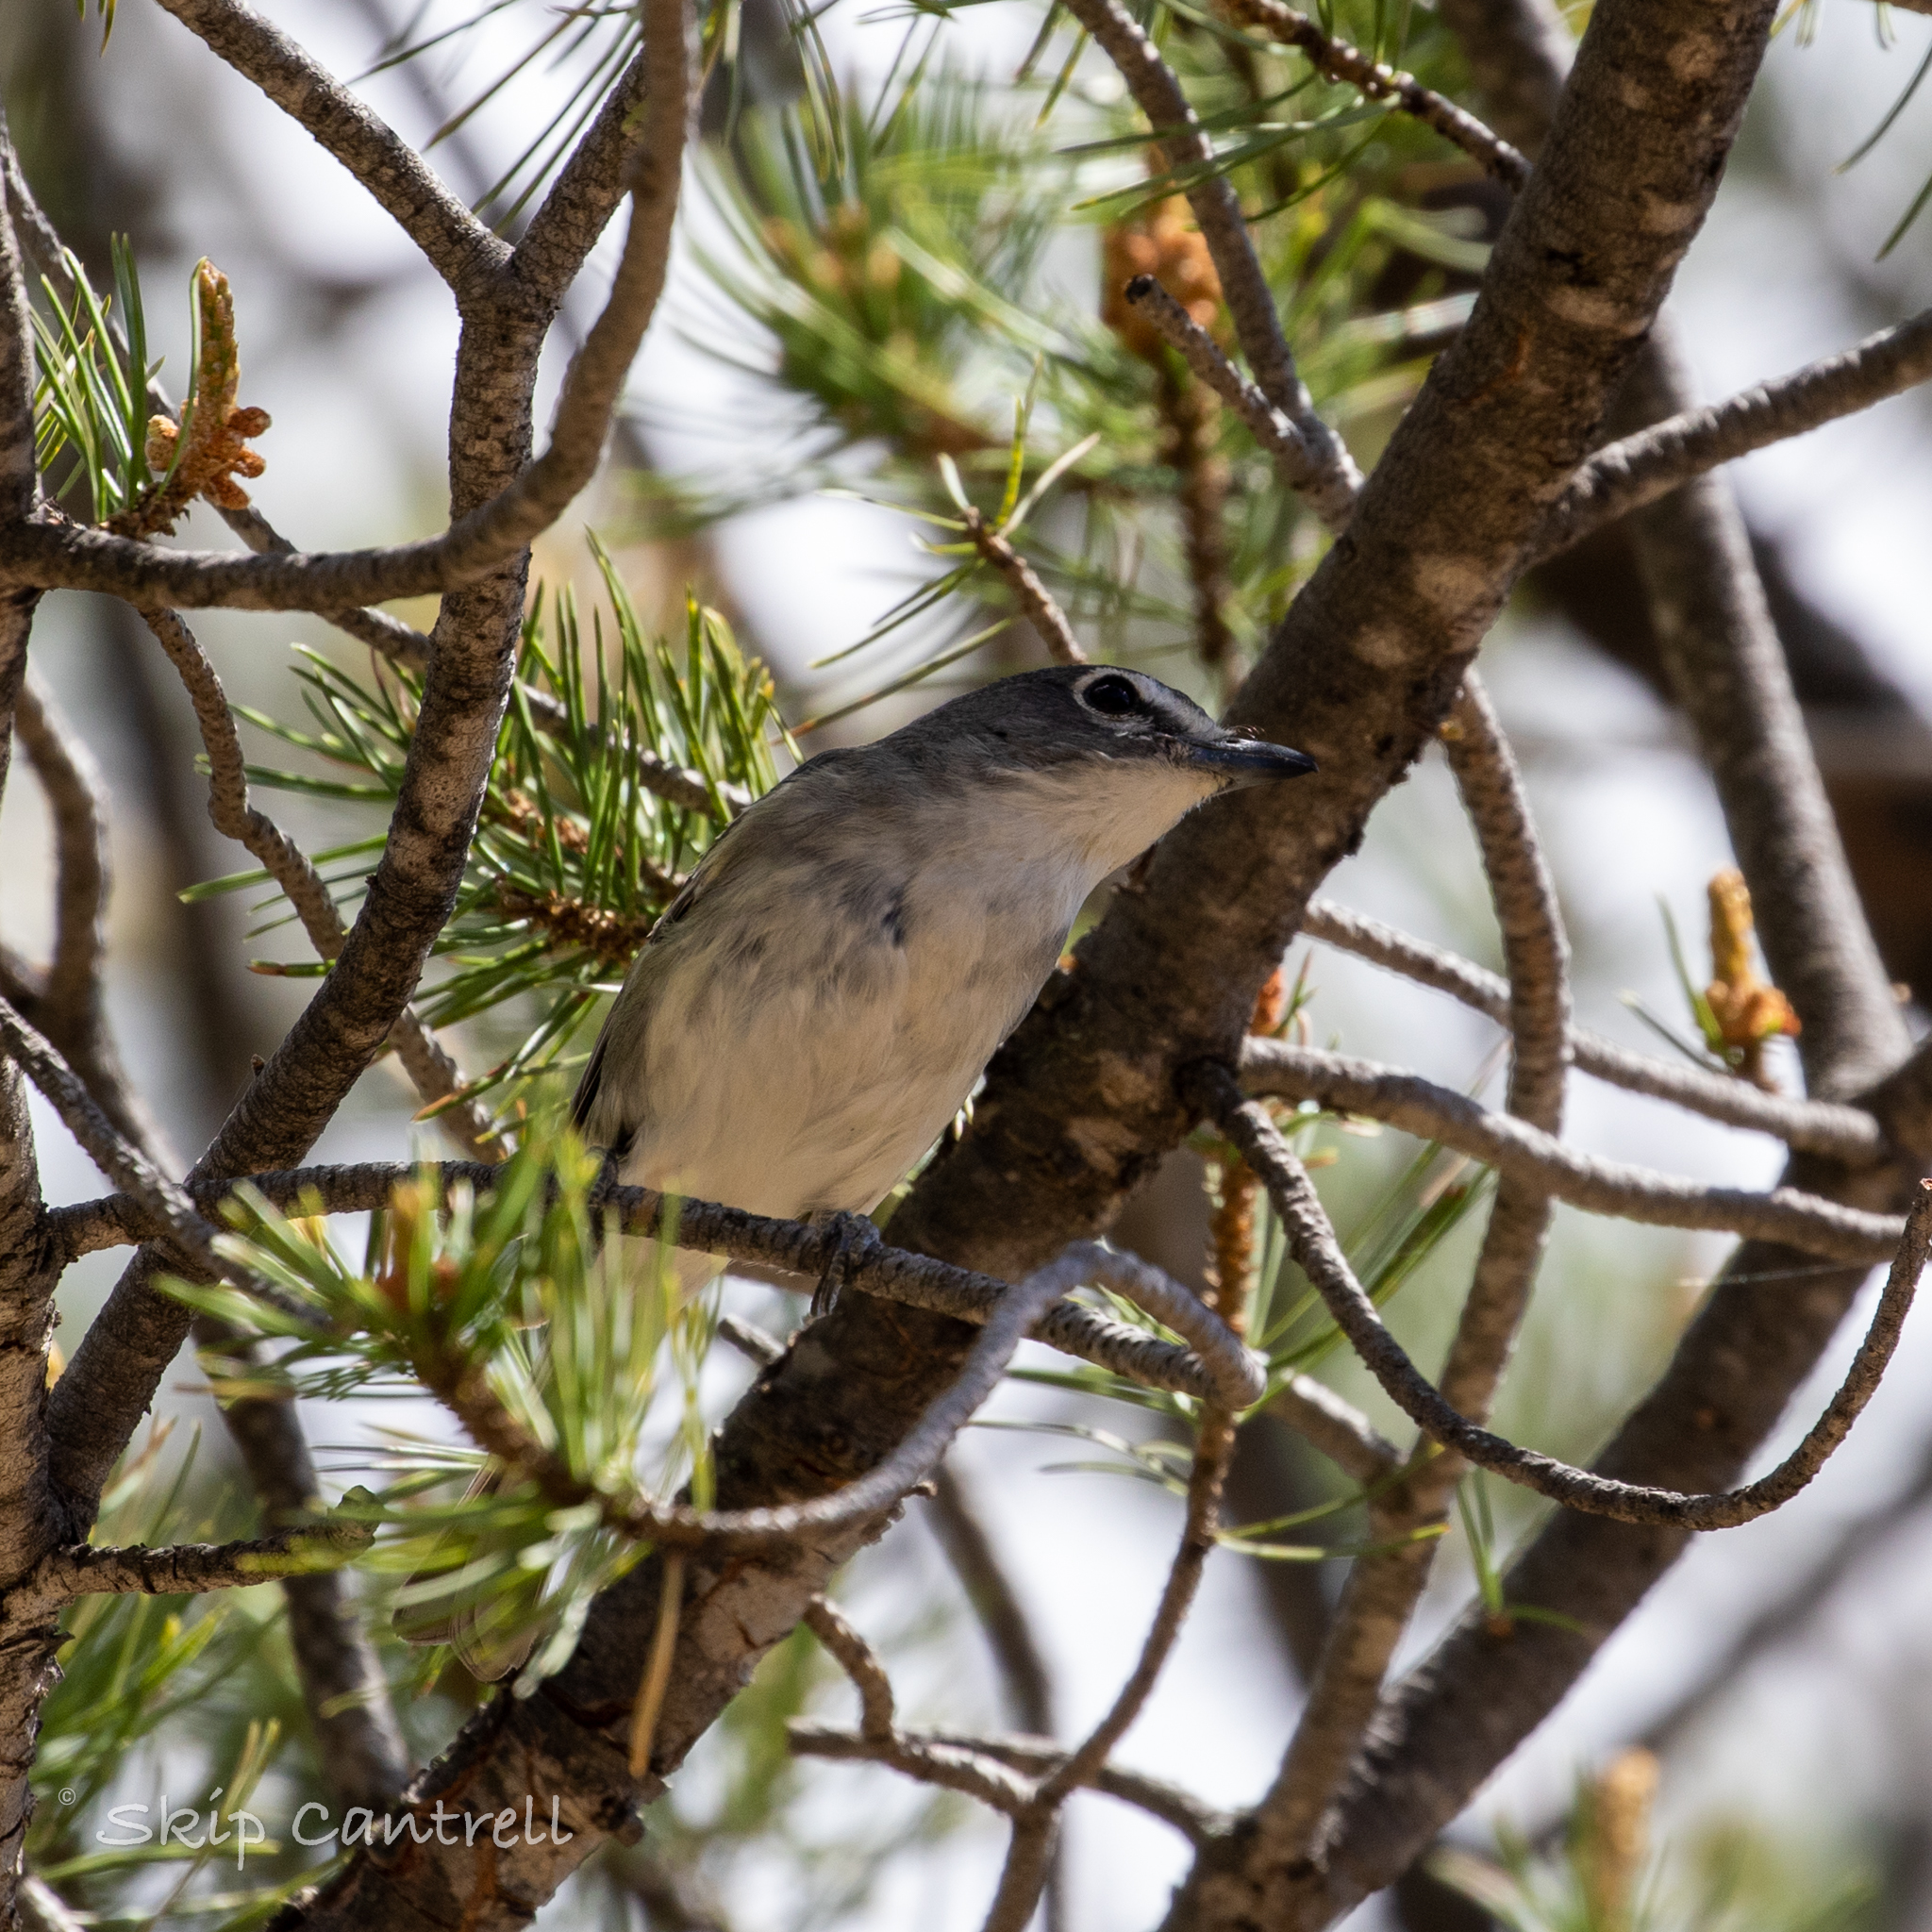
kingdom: Animalia
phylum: Chordata
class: Aves
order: Passeriformes
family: Vireonidae
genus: Vireo
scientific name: Vireo plumbeus
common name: Plumbeous vireo
